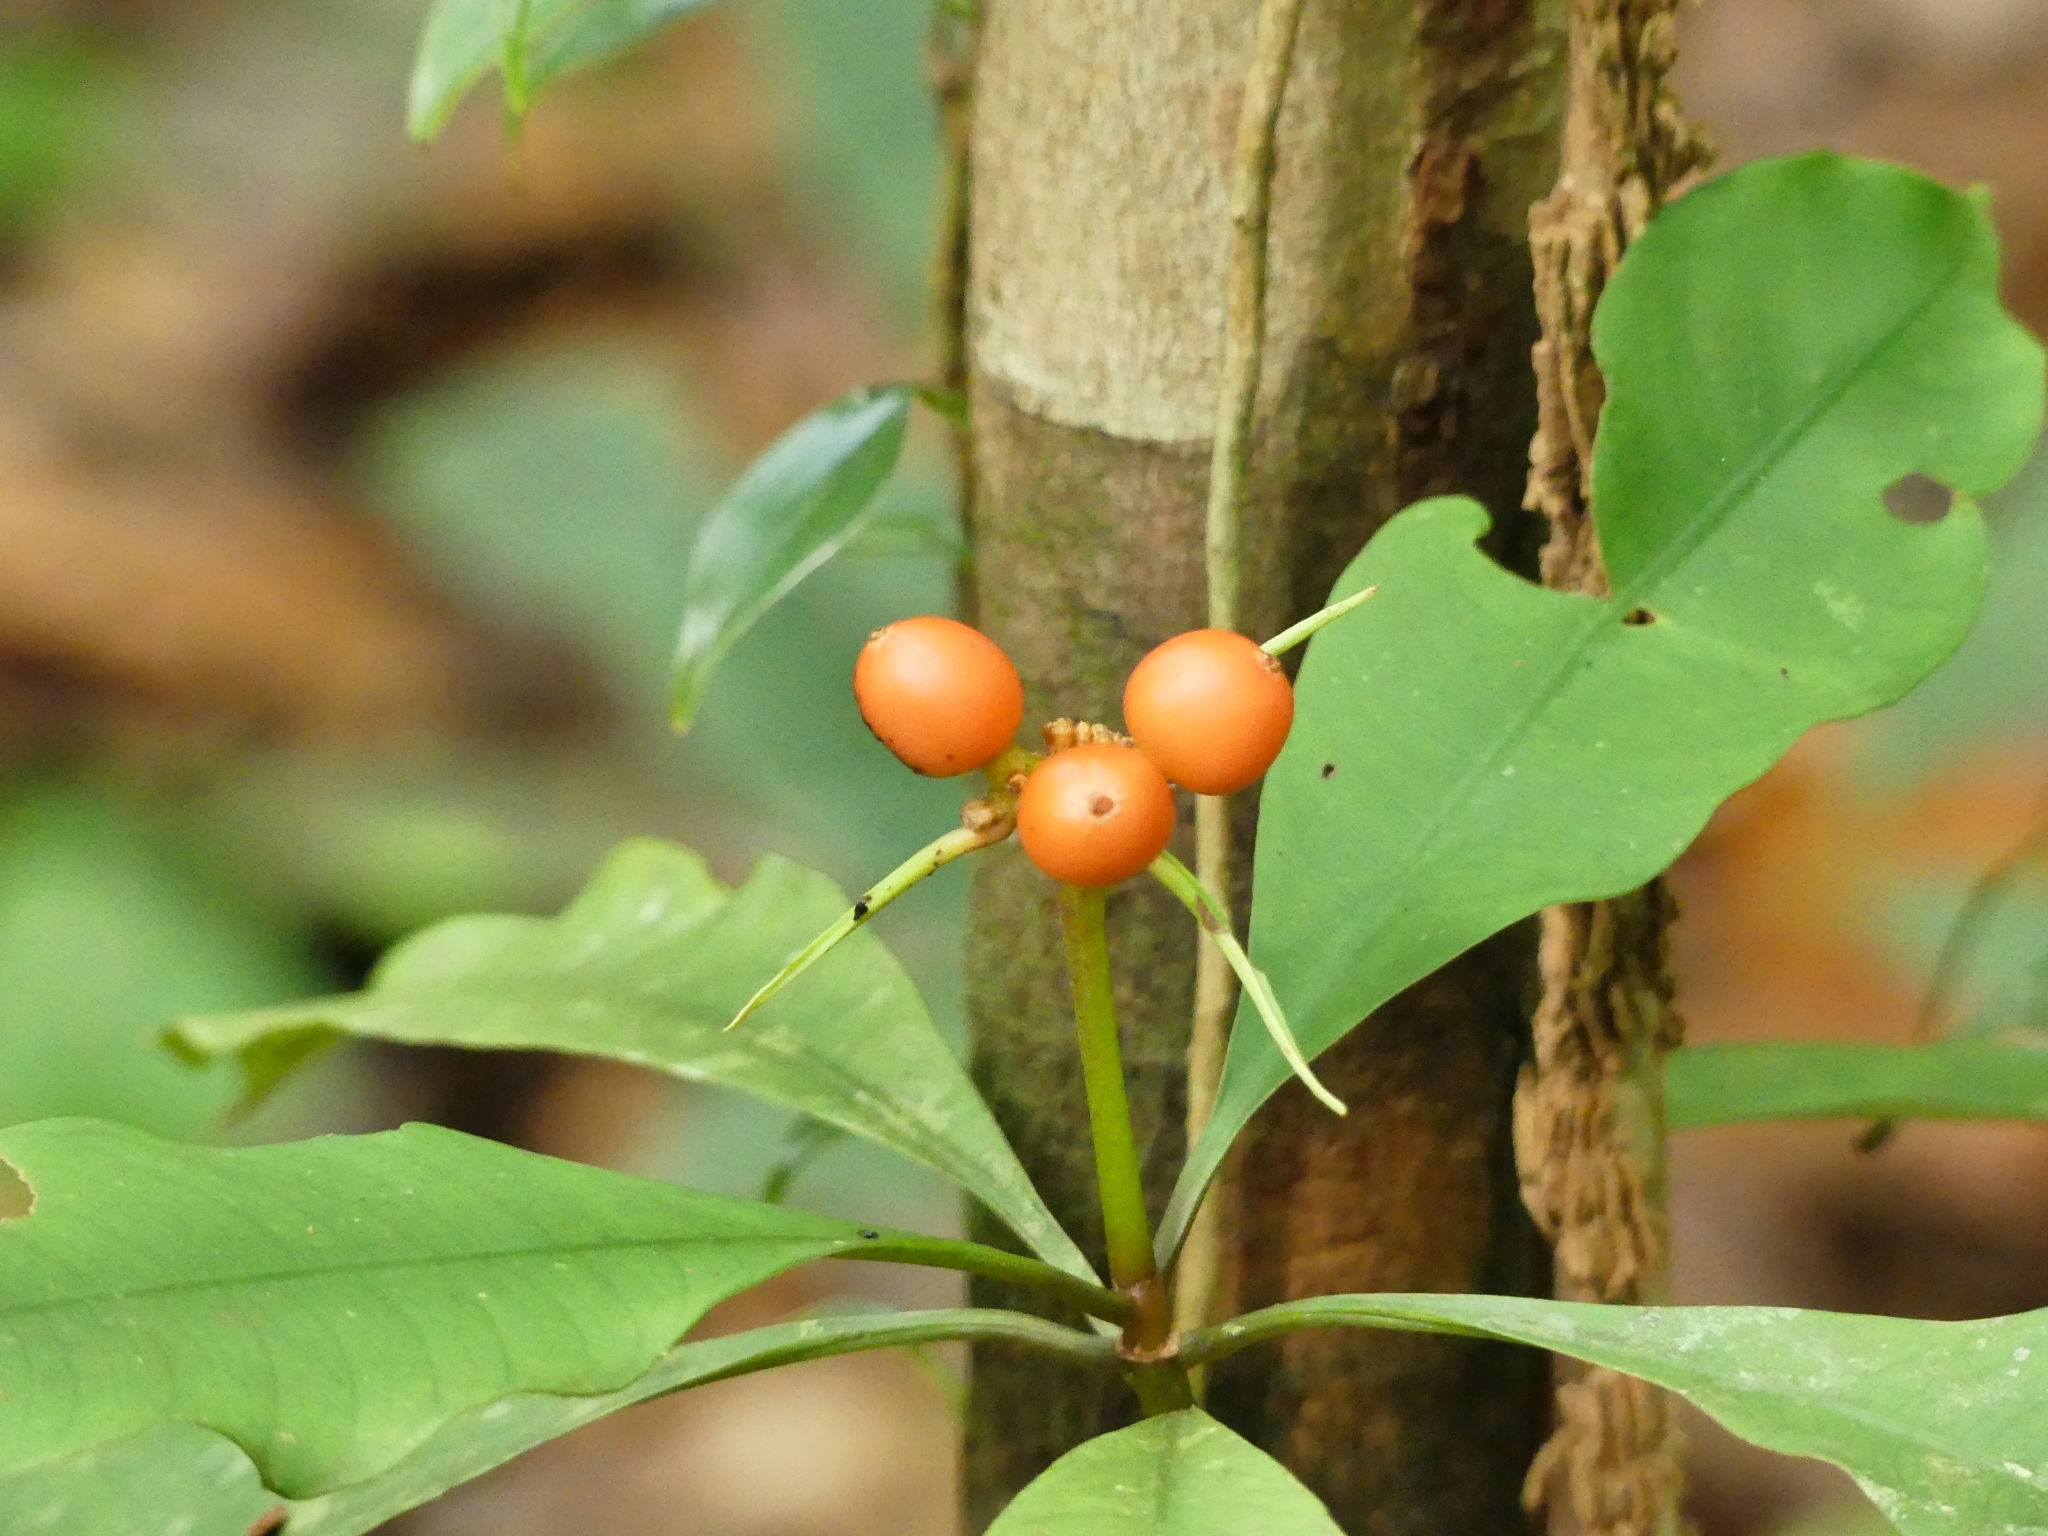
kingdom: Plantae
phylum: Tracheophyta
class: Magnoliopsida
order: Gentianales
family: Rubiaceae
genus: Carapichea
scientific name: Carapichea ligularis
